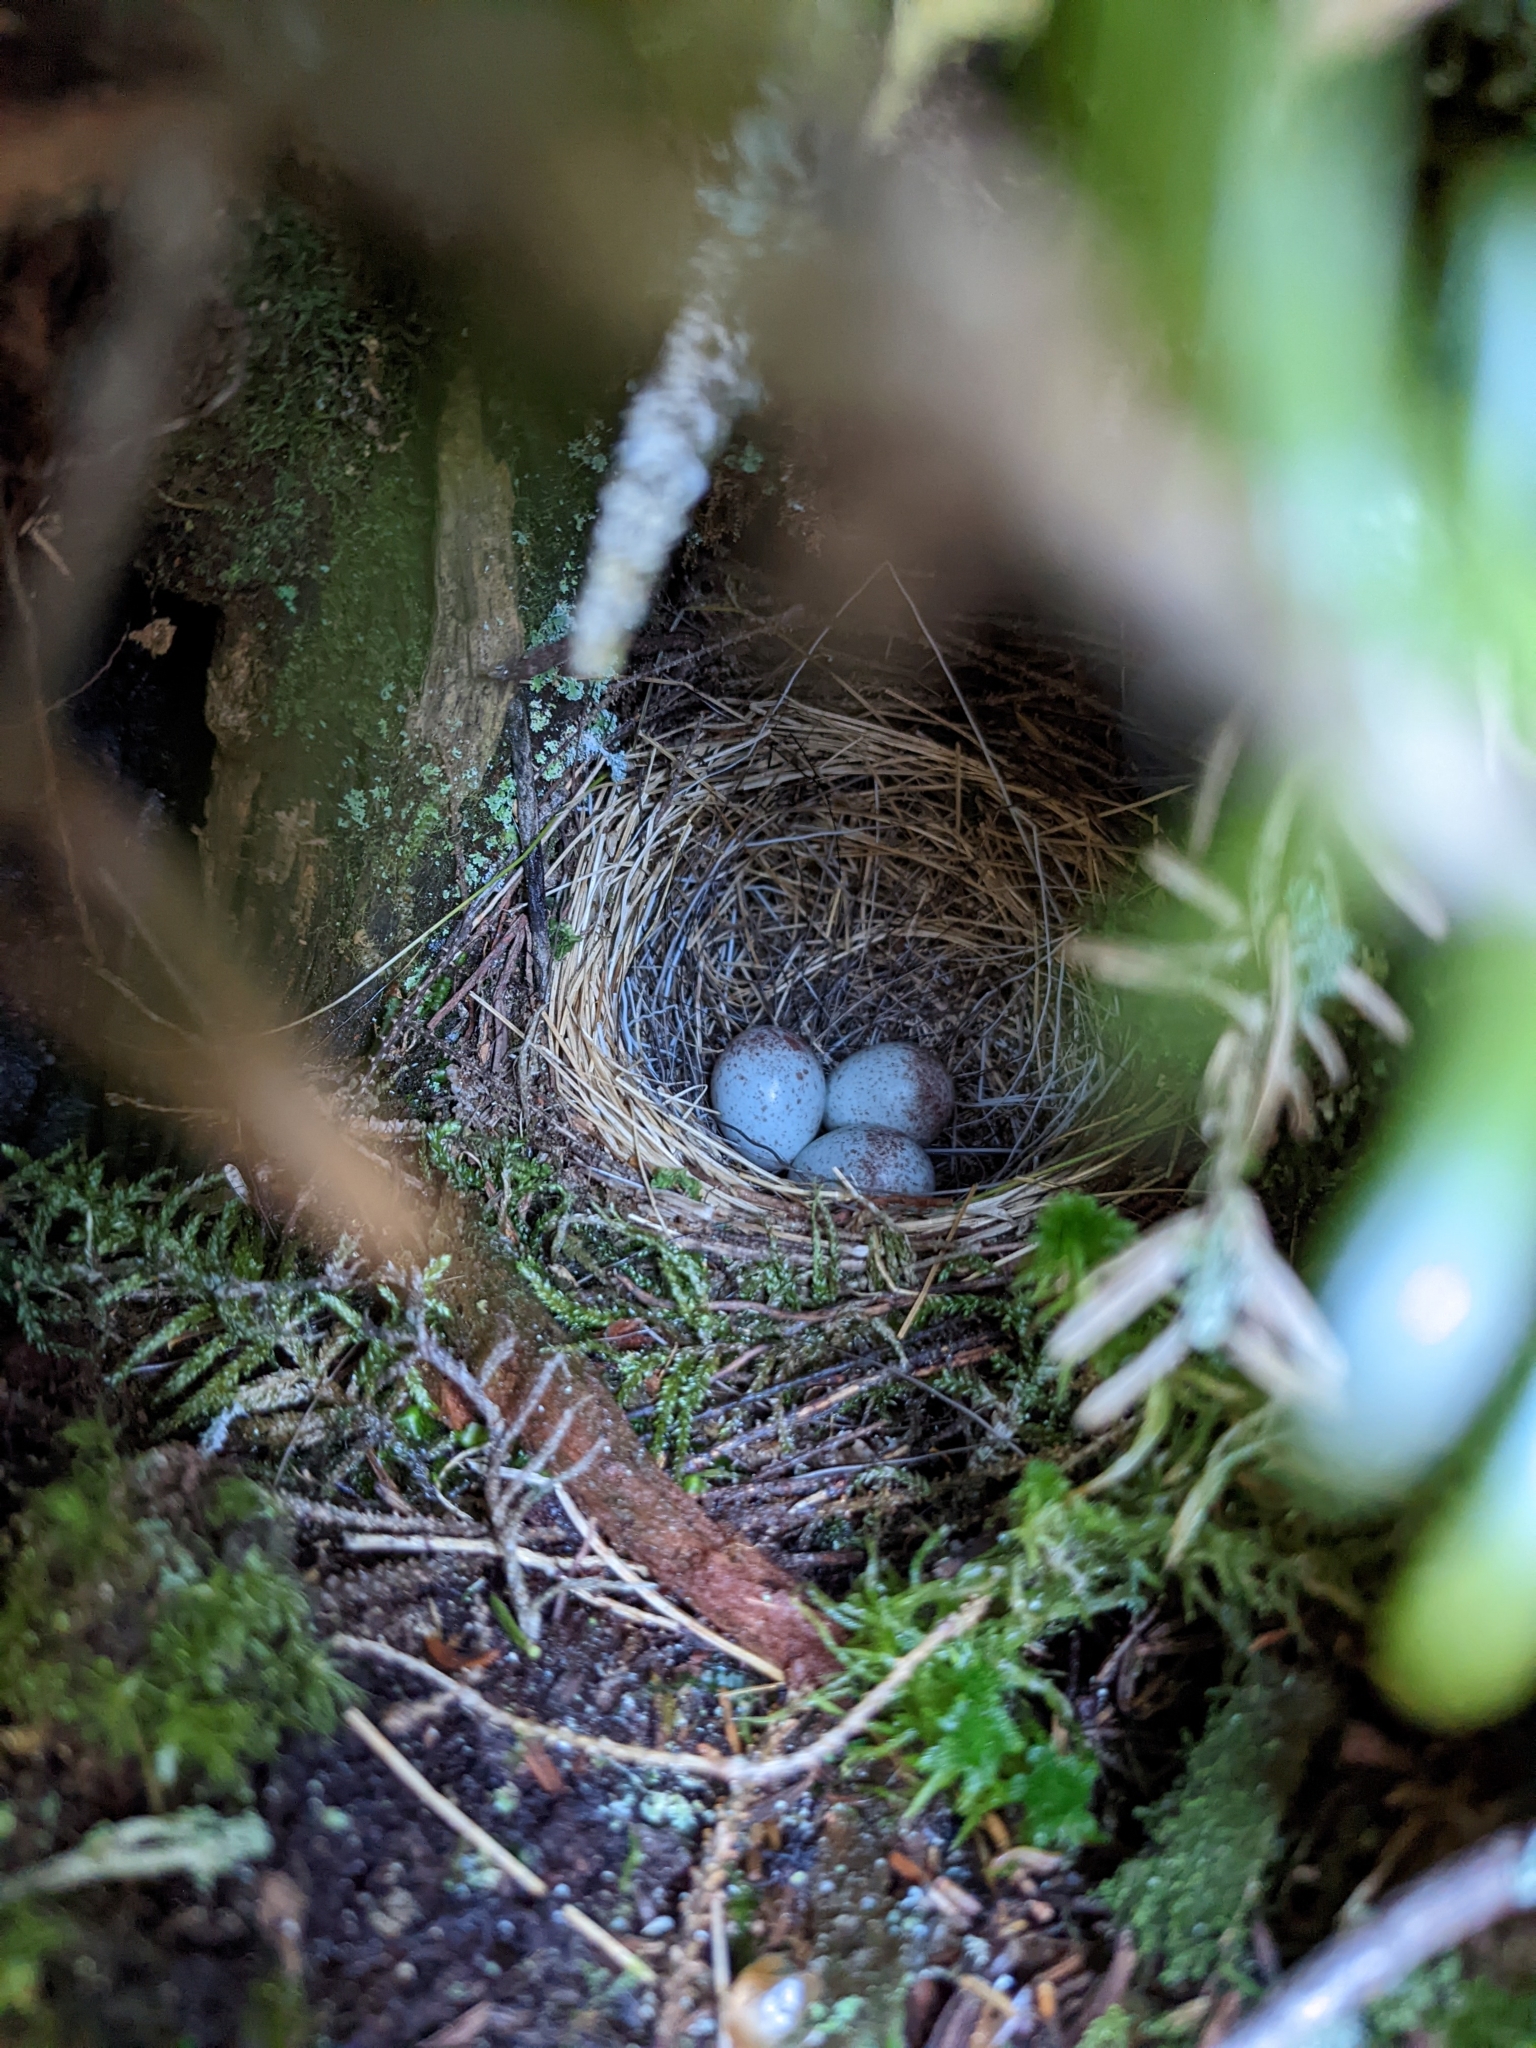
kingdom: Animalia
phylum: Chordata
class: Aves
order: Passeriformes
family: Passerellidae
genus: Junco
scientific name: Junco hyemalis
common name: Dark-eyed junco
